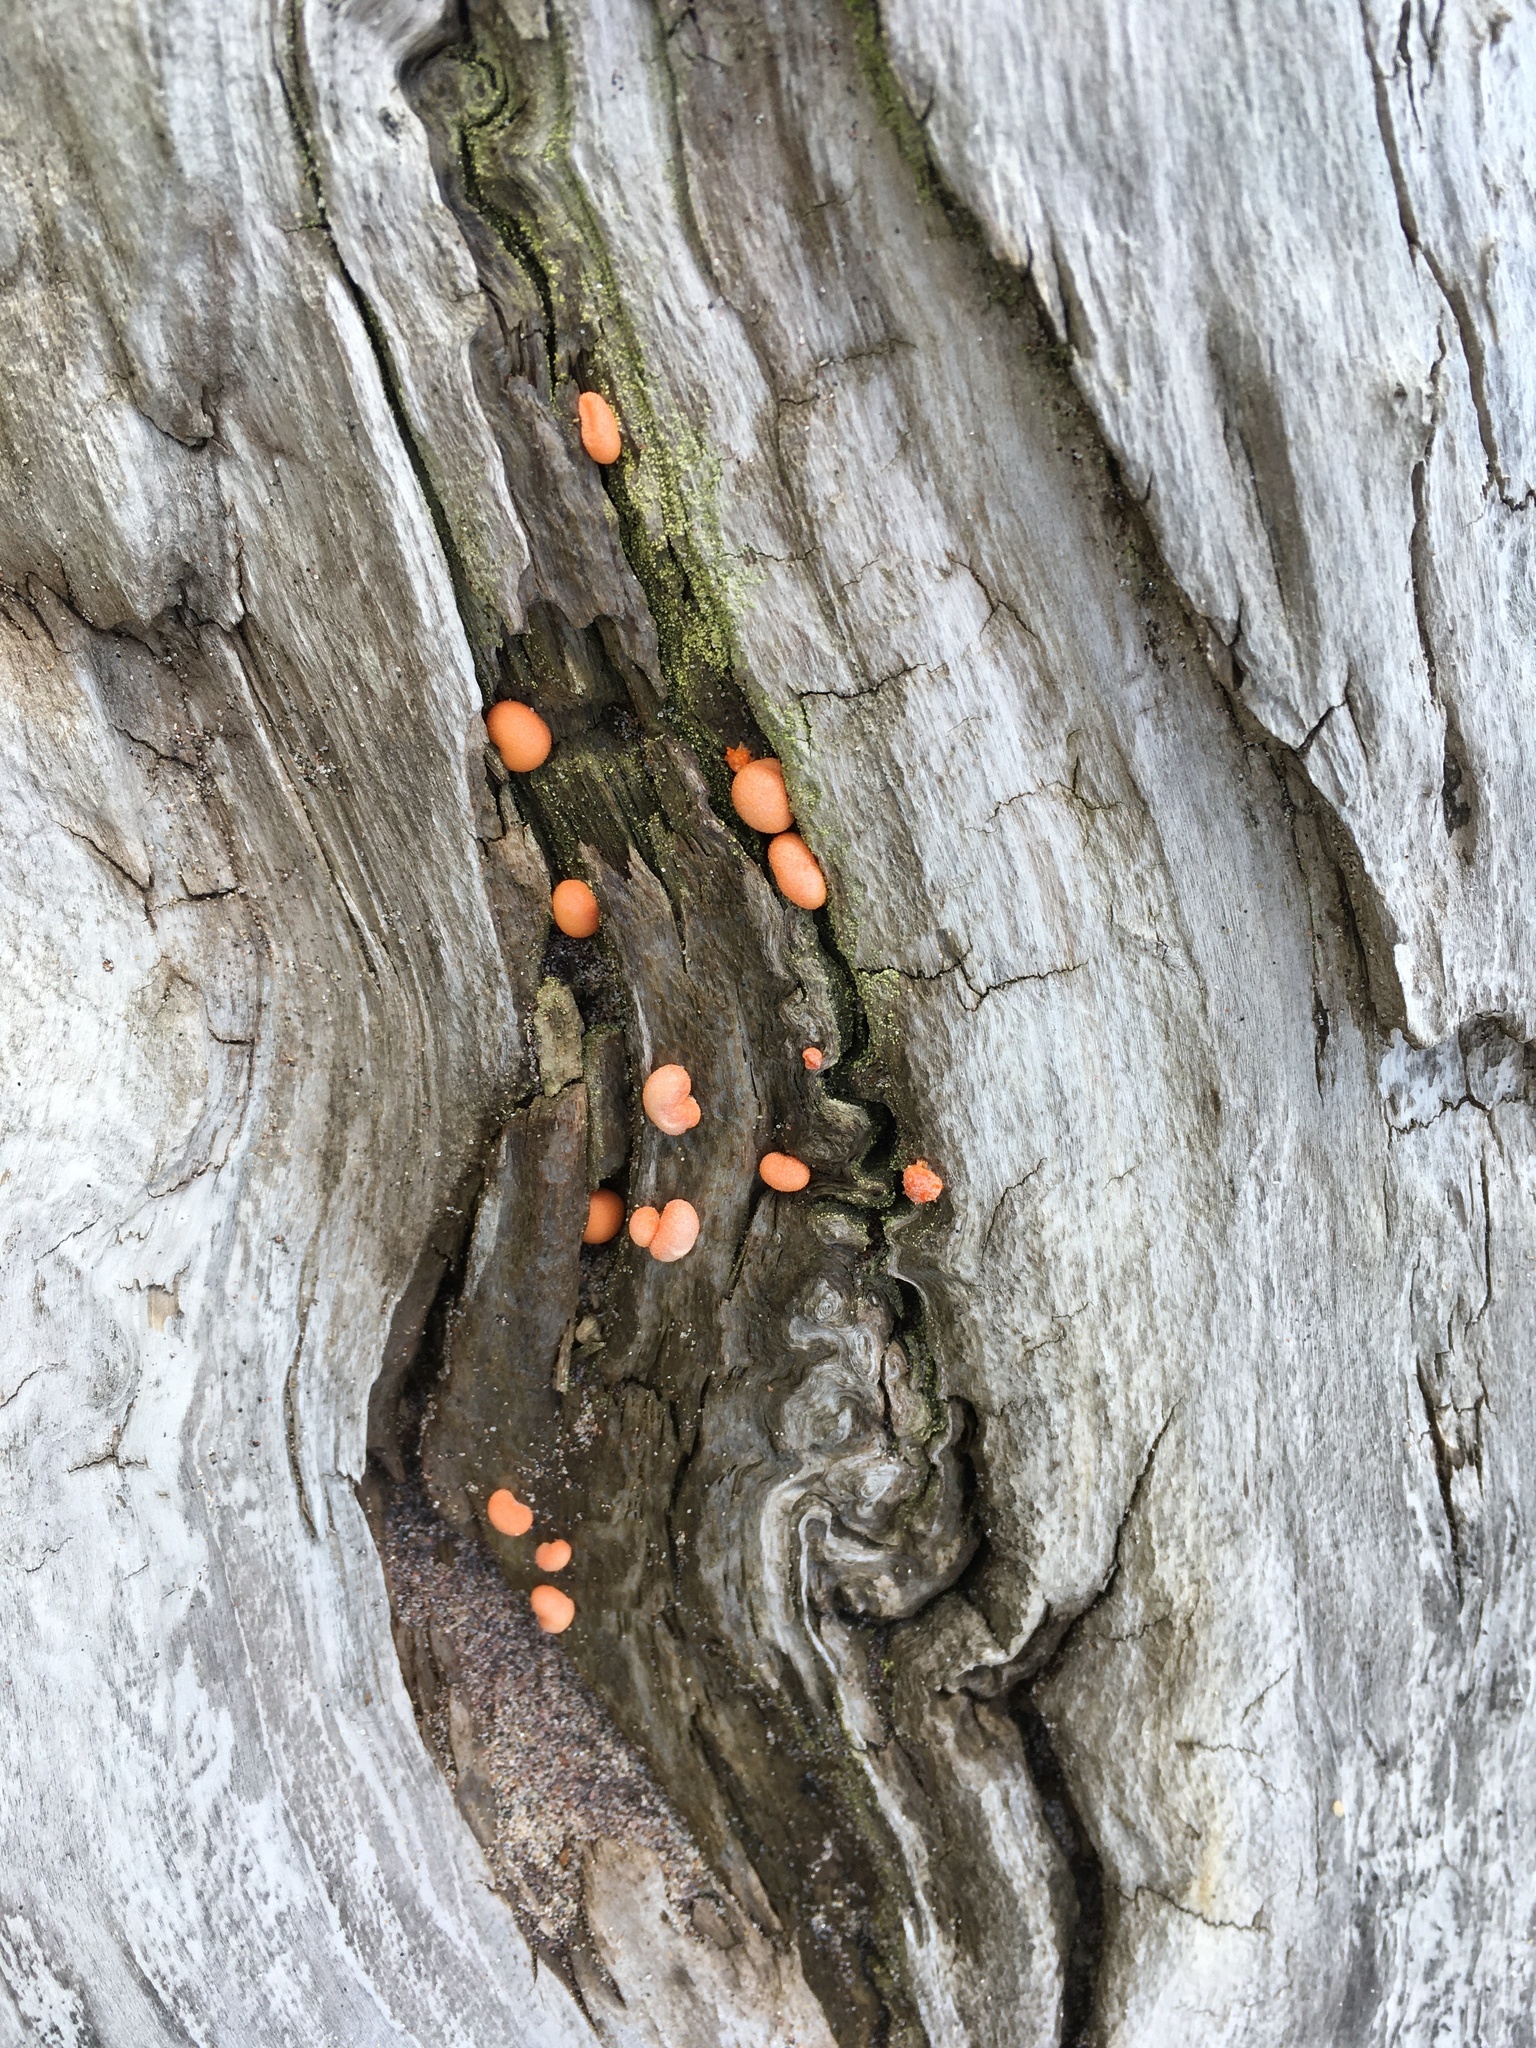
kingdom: Protozoa
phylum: Mycetozoa
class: Myxomycetes
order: Cribrariales
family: Tubiferaceae
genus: Lycogala
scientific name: Lycogala epidendrum
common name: Wolf's milk
